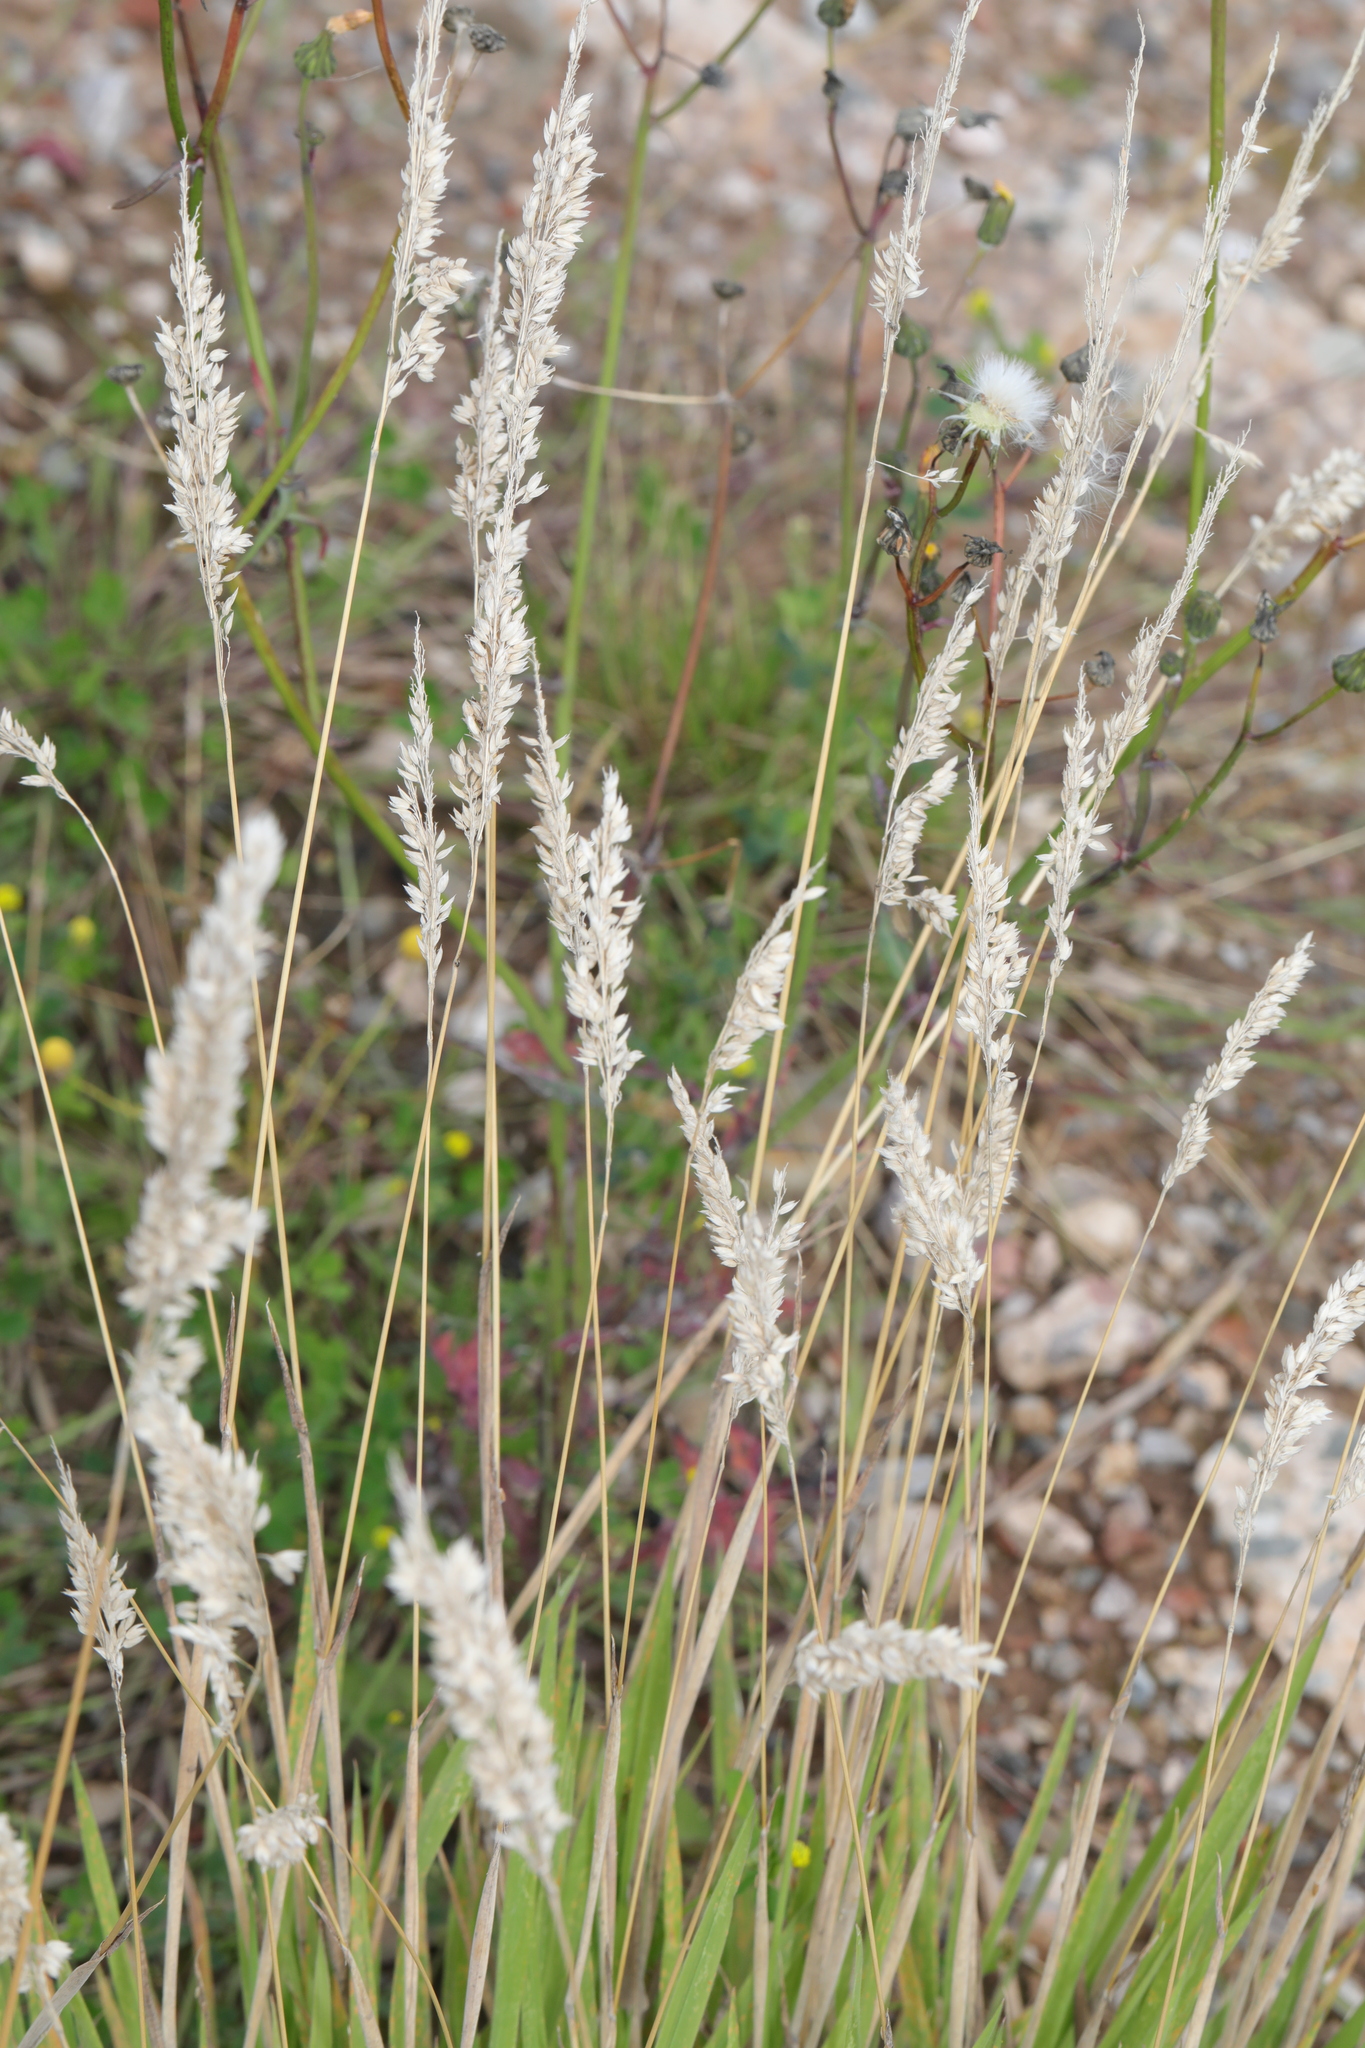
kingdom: Plantae
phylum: Tracheophyta
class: Liliopsida
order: Poales
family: Poaceae
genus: Holcus
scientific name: Holcus lanatus
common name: Yorkshire-fog
